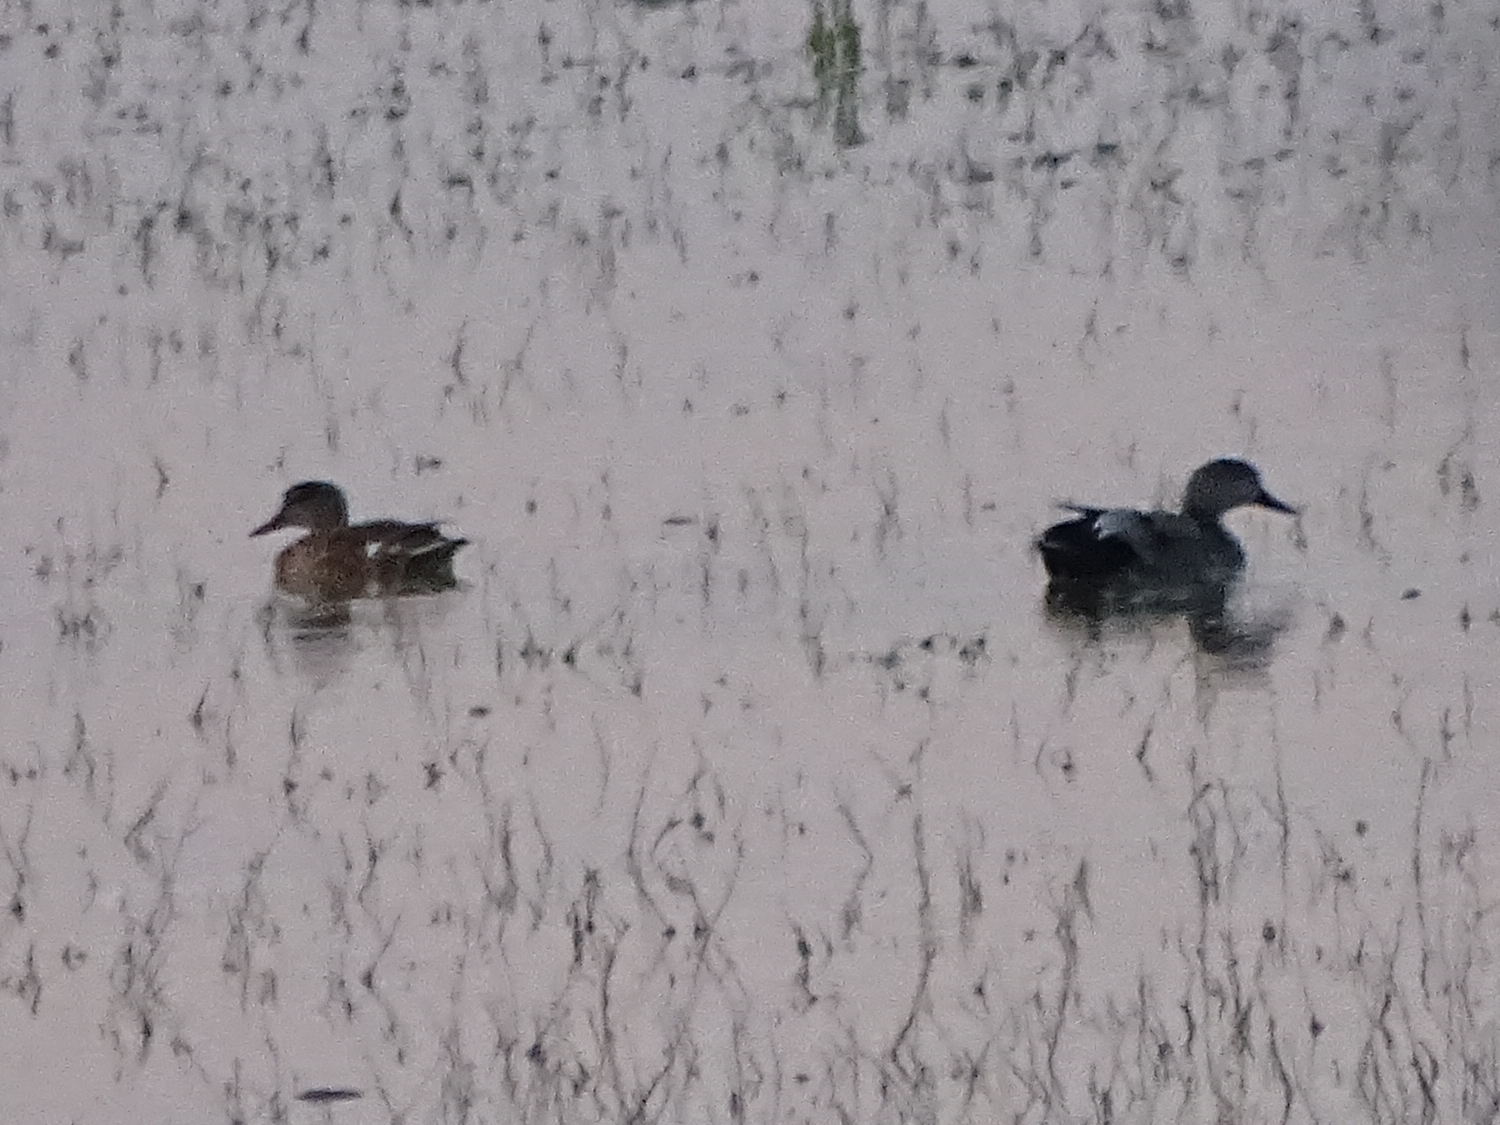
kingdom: Animalia
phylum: Chordata
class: Aves
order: Anseriformes
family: Anatidae
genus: Mareca
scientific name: Mareca strepera
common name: Gadwall
